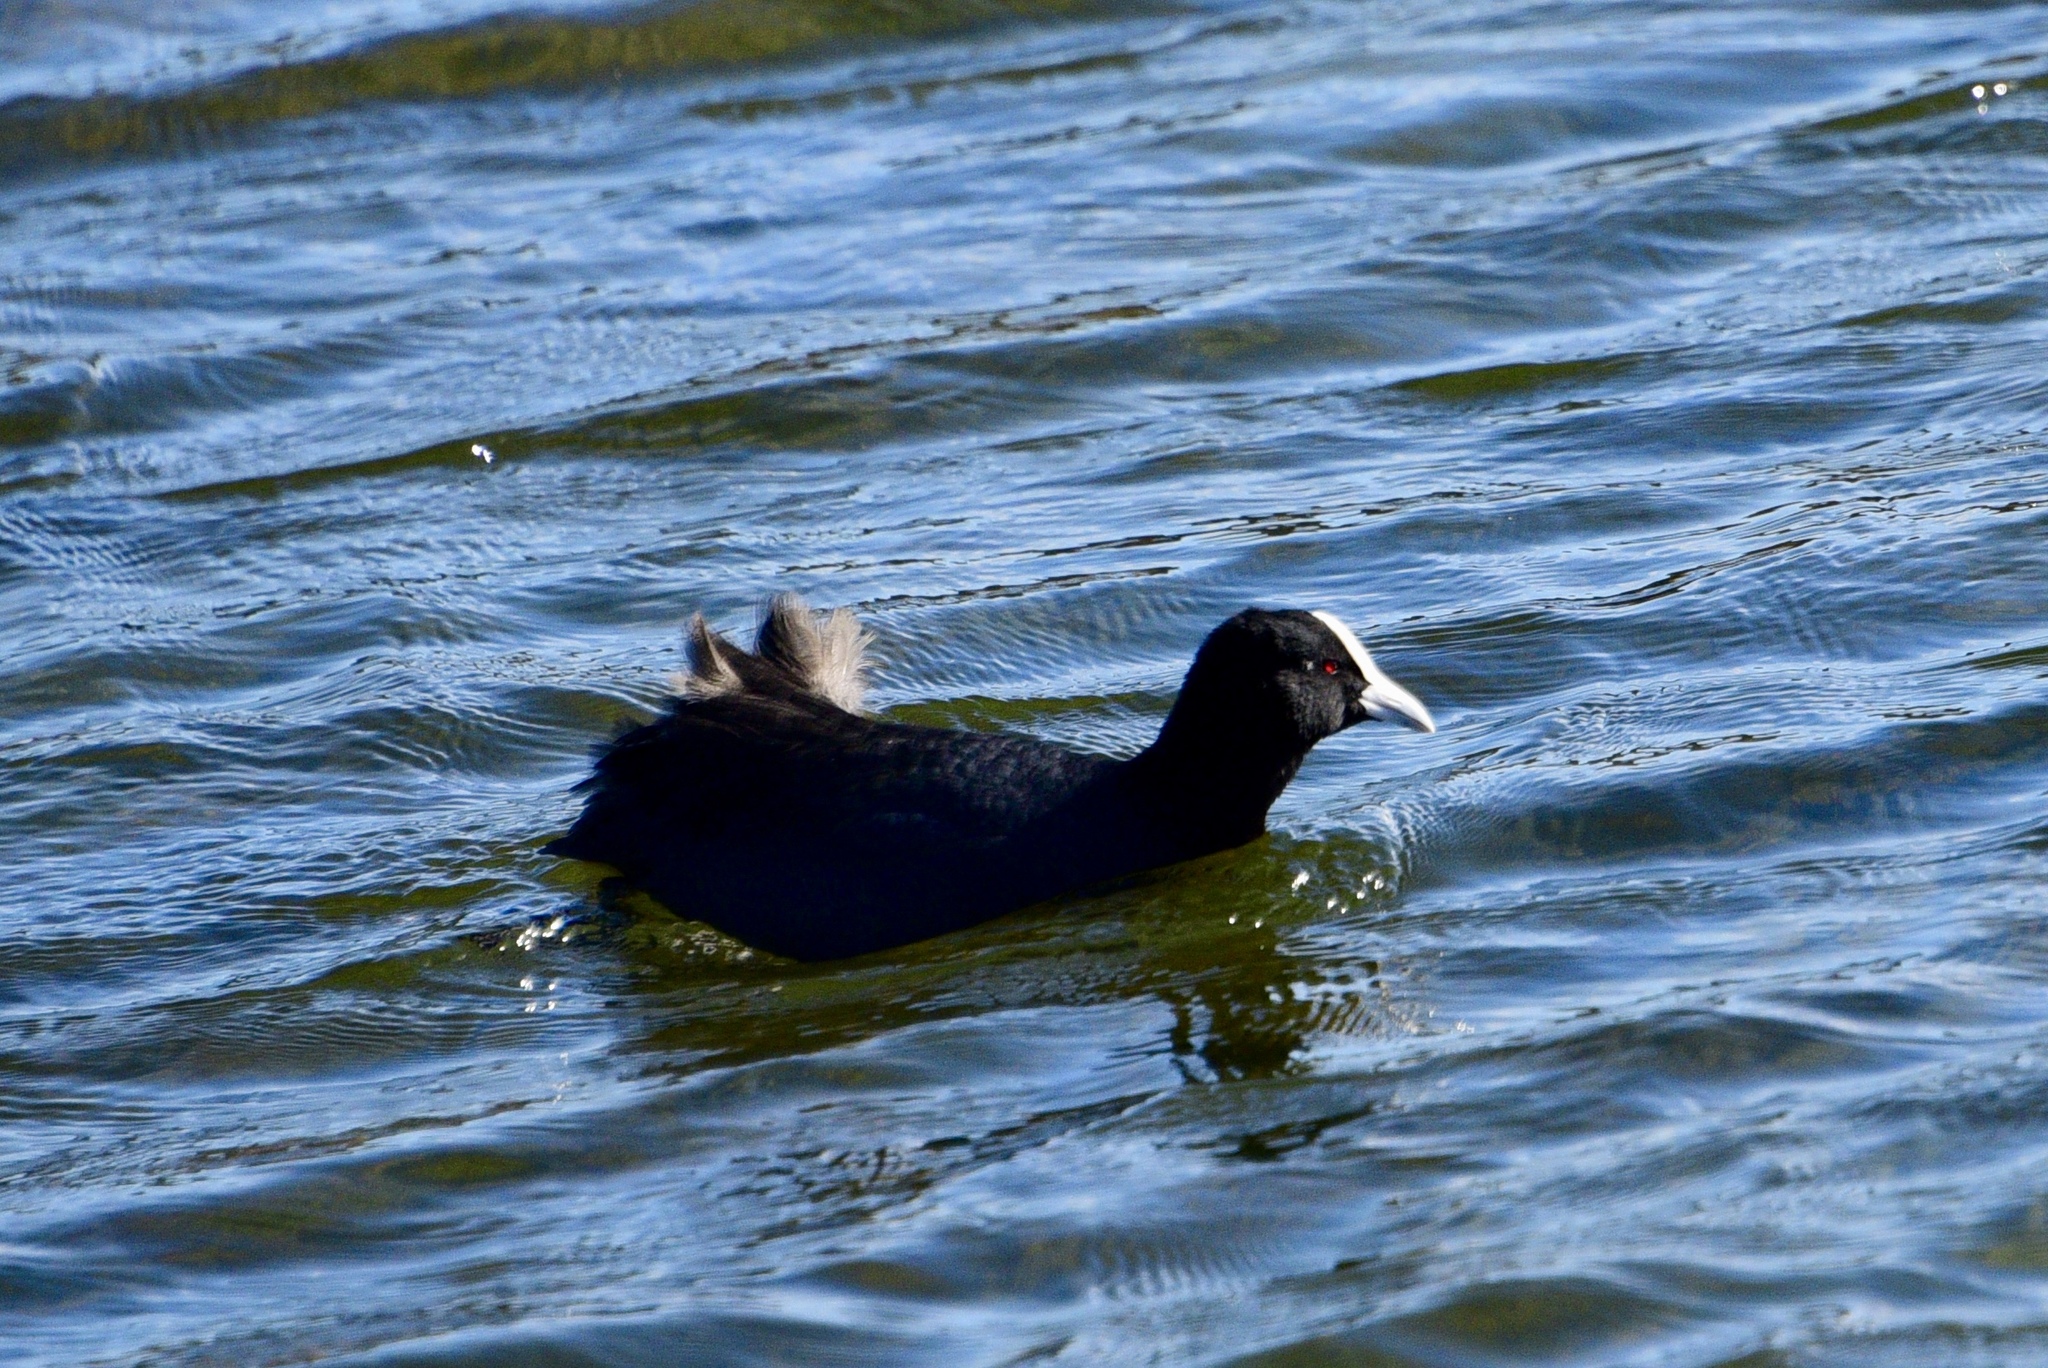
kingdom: Animalia
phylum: Chordata
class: Aves
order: Gruiformes
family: Rallidae
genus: Fulica
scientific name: Fulica atra
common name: Eurasian coot
